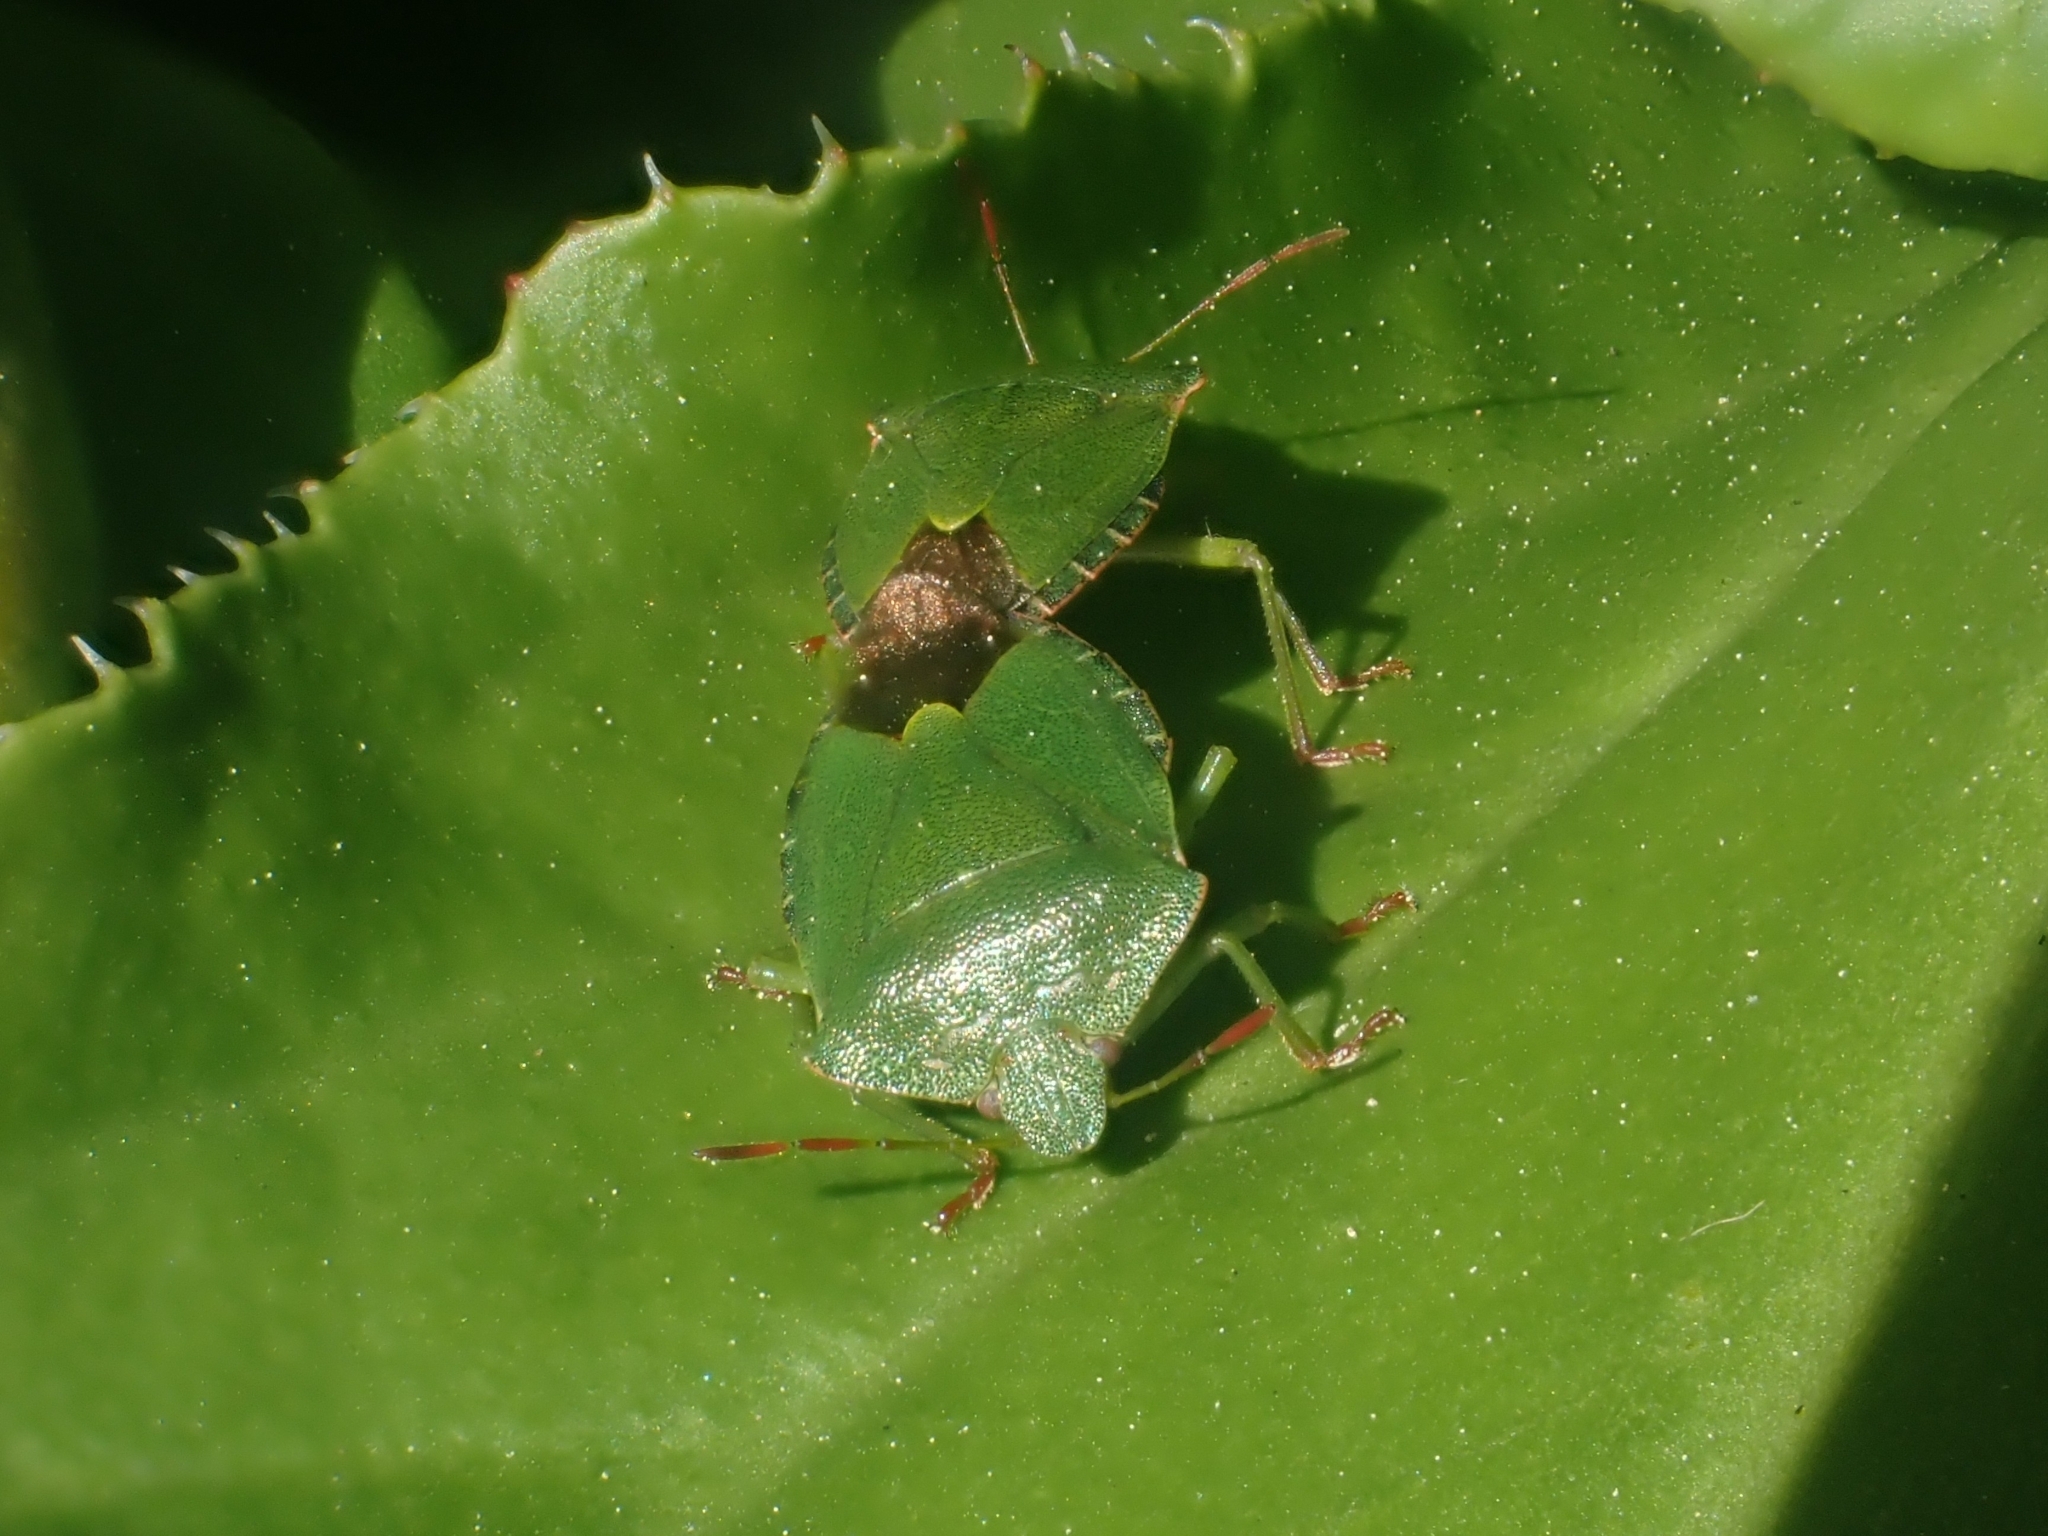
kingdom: Animalia
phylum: Arthropoda
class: Insecta
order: Hemiptera
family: Pentatomidae
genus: Palomena
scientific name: Palomena prasina
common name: Green shieldbug
